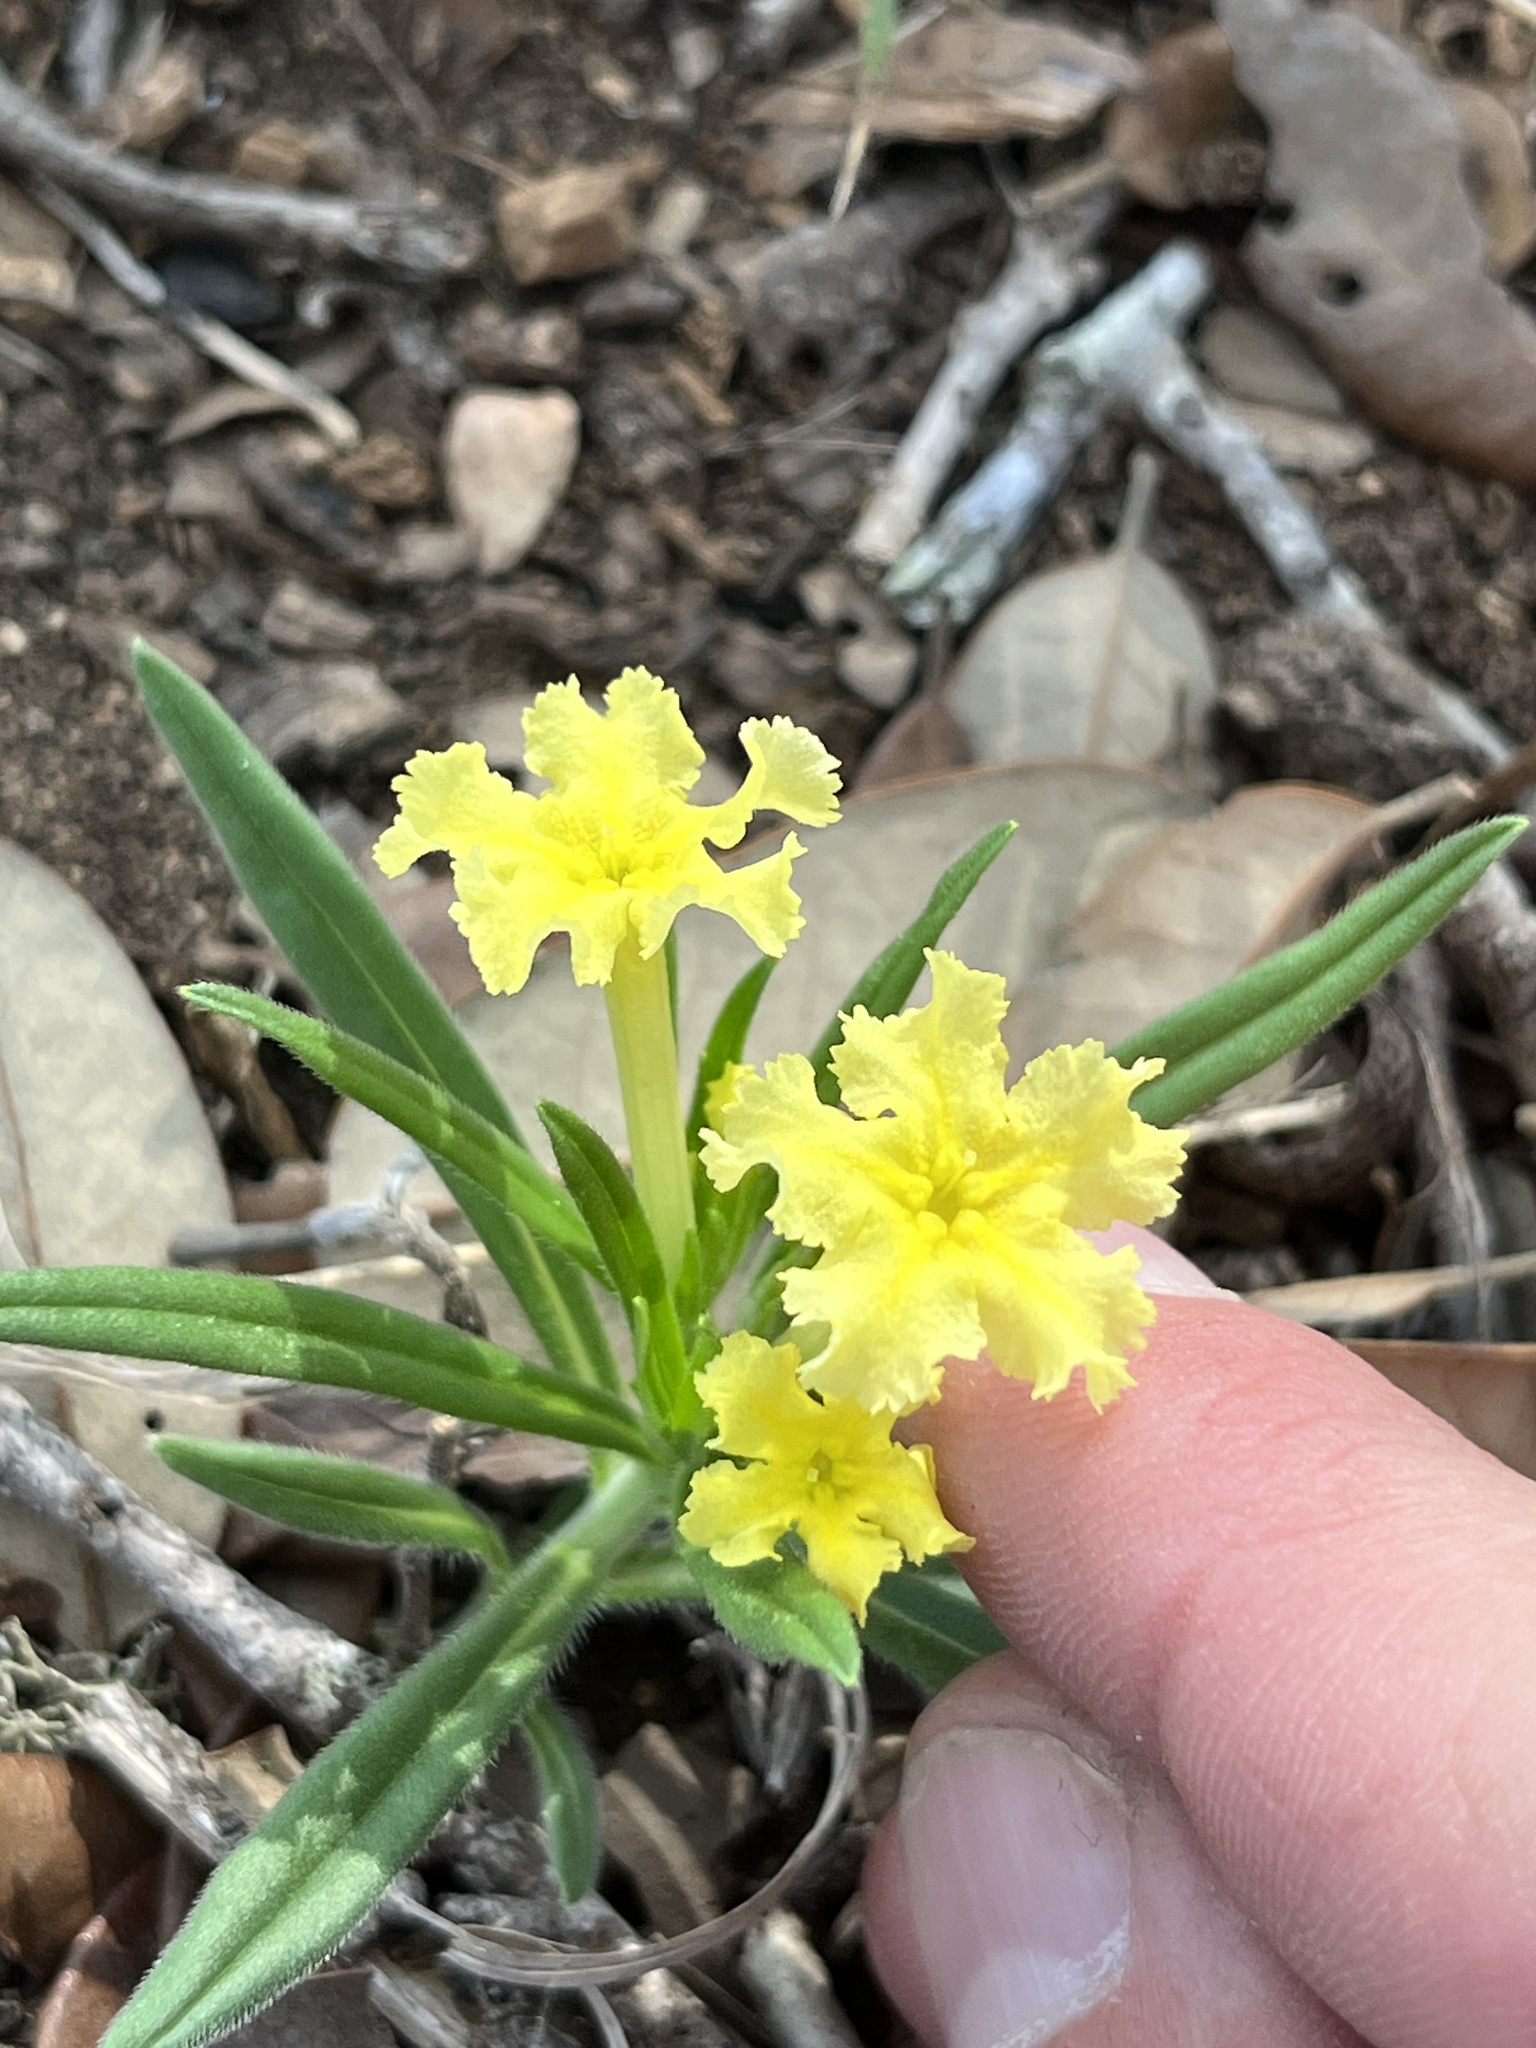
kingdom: Plantae
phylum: Tracheophyta
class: Magnoliopsida
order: Boraginales
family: Boraginaceae
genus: Lithospermum
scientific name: Lithospermum incisum
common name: Fringed gromwell
